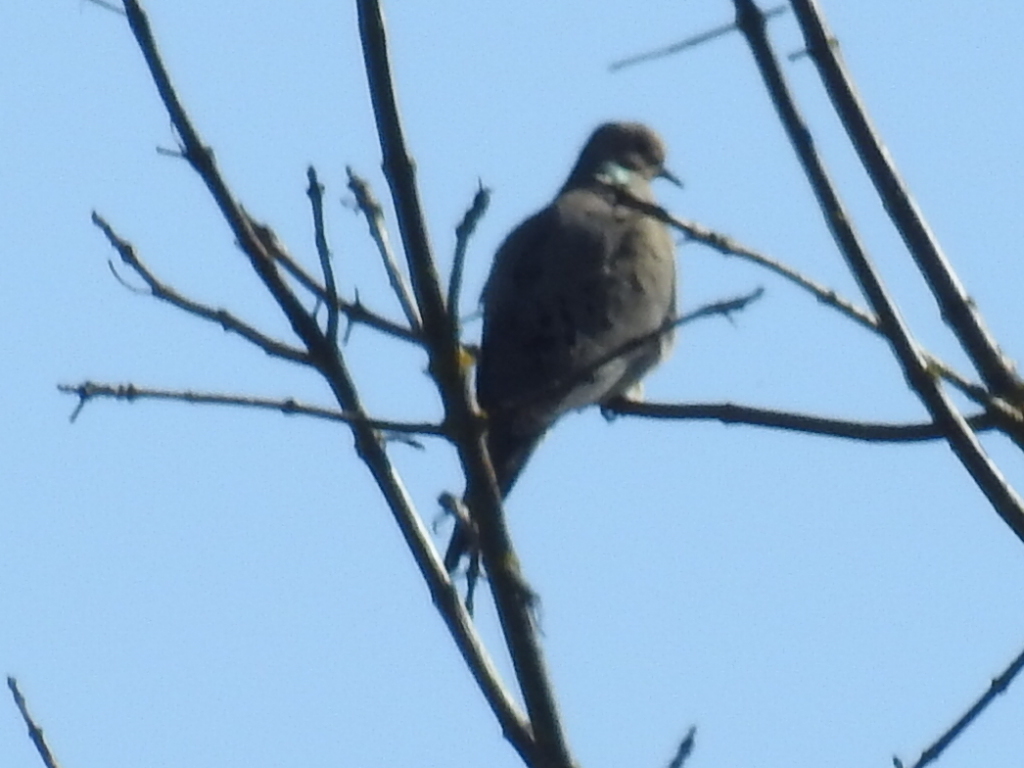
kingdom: Animalia
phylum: Chordata
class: Aves
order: Columbiformes
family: Columbidae
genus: Zenaida
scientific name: Zenaida macroura
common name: Mourning dove
